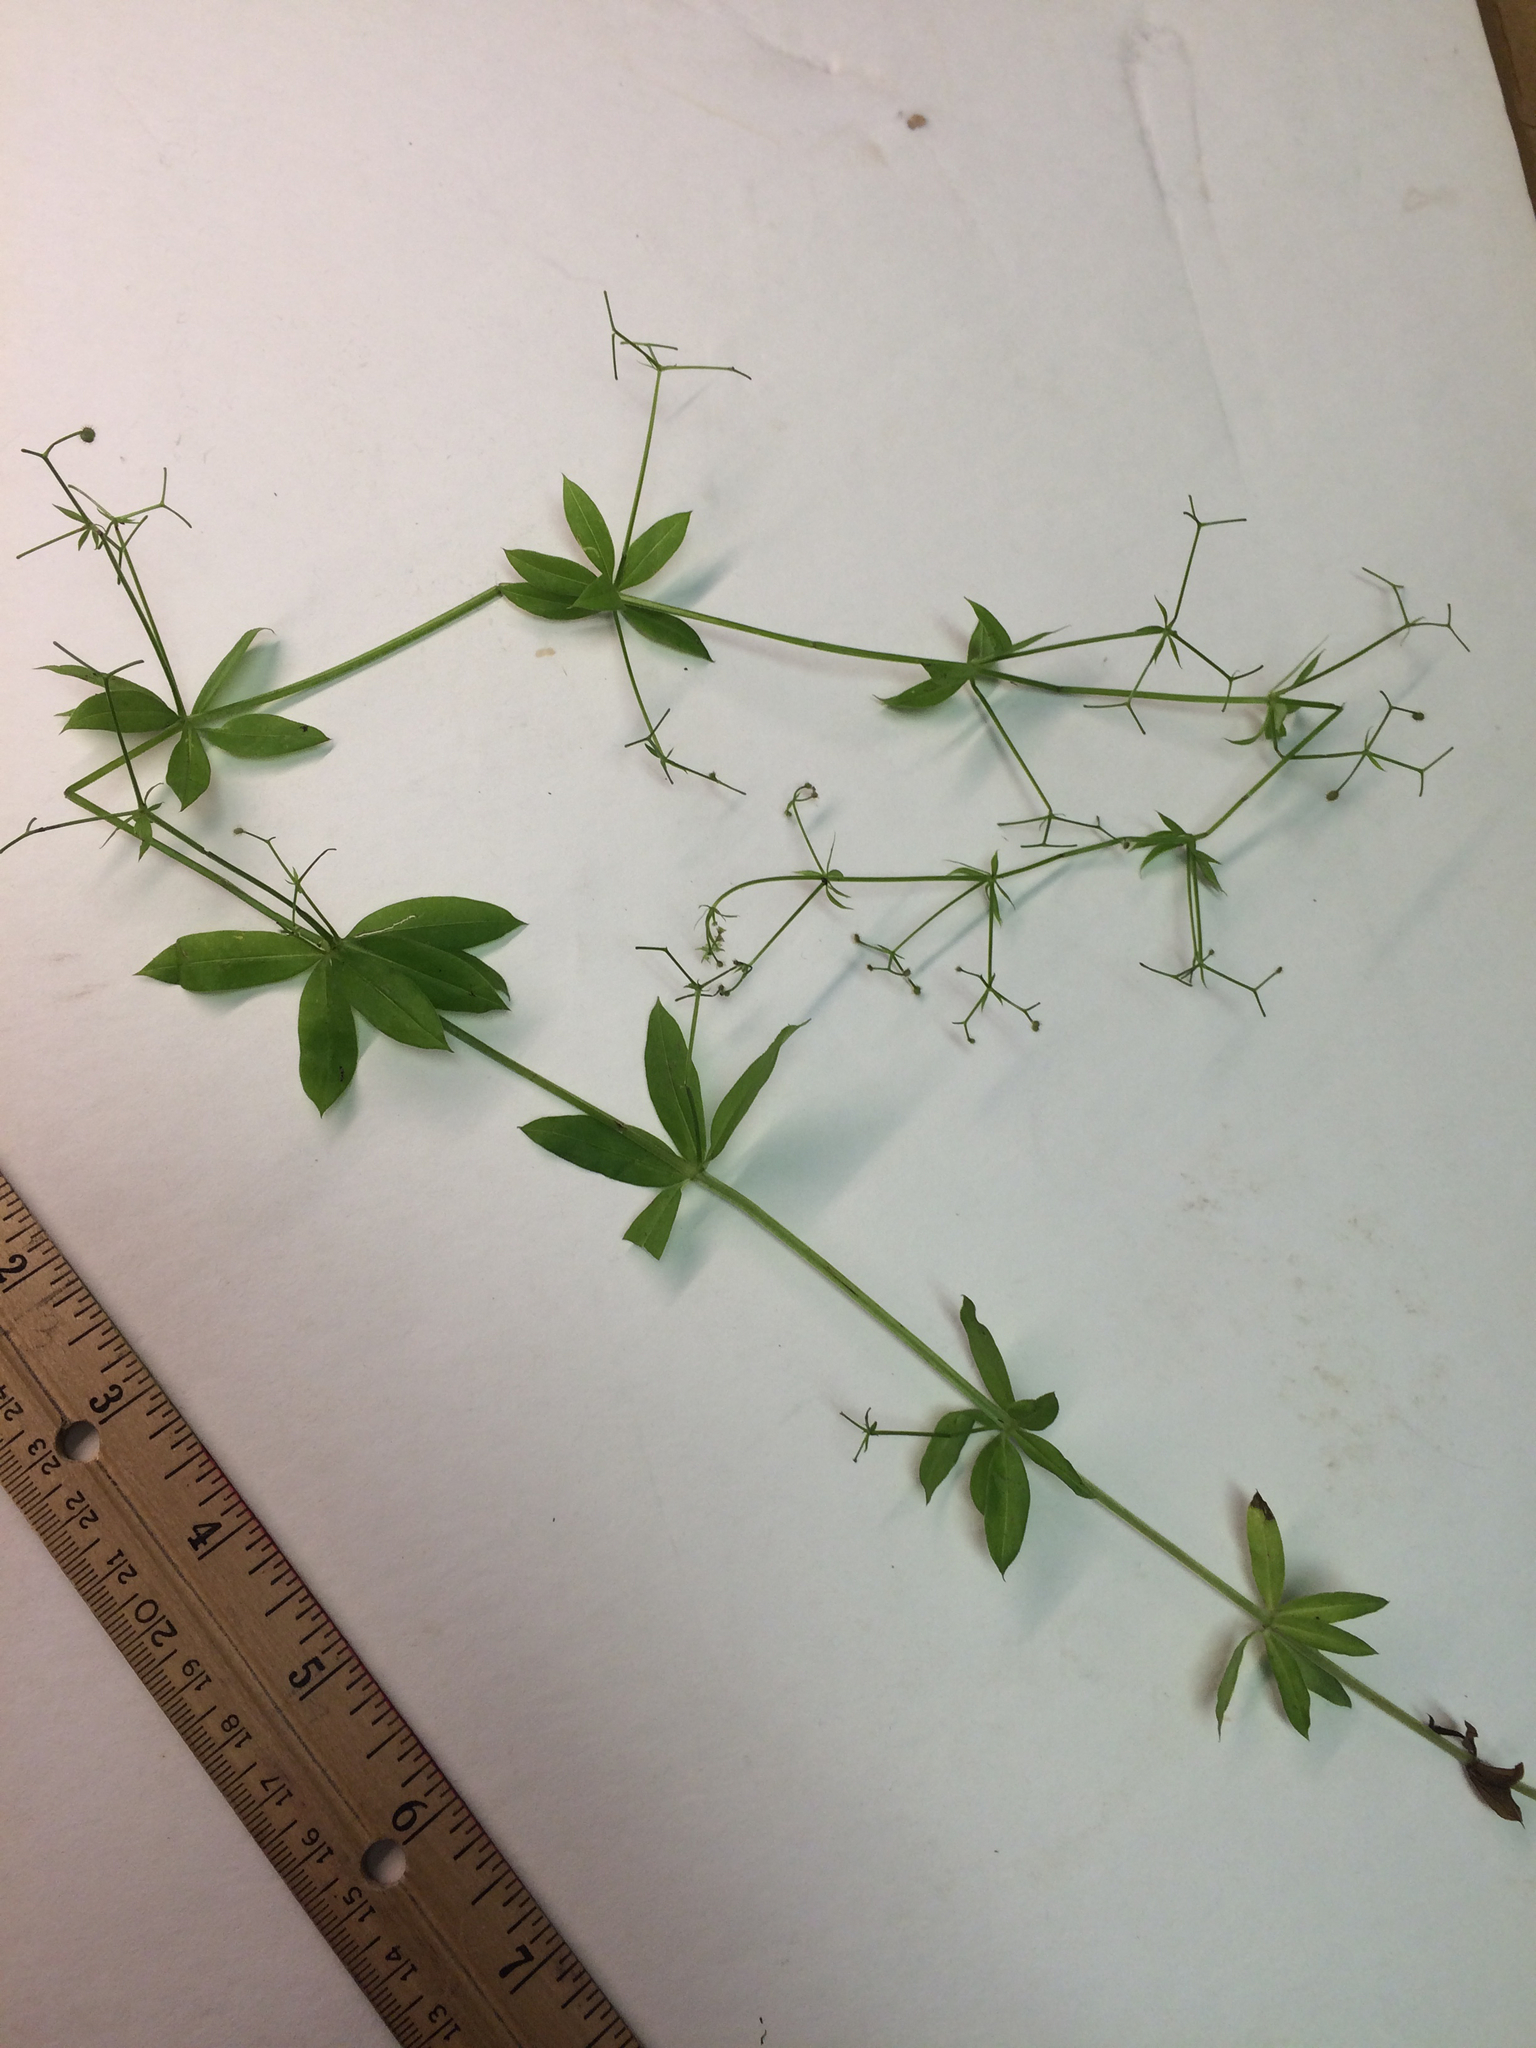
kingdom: Plantae
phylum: Tracheophyta
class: Magnoliopsida
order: Gentianales
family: Rubiaceae
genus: Galium
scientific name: Galium triflorum
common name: Fragrant bedstraw
